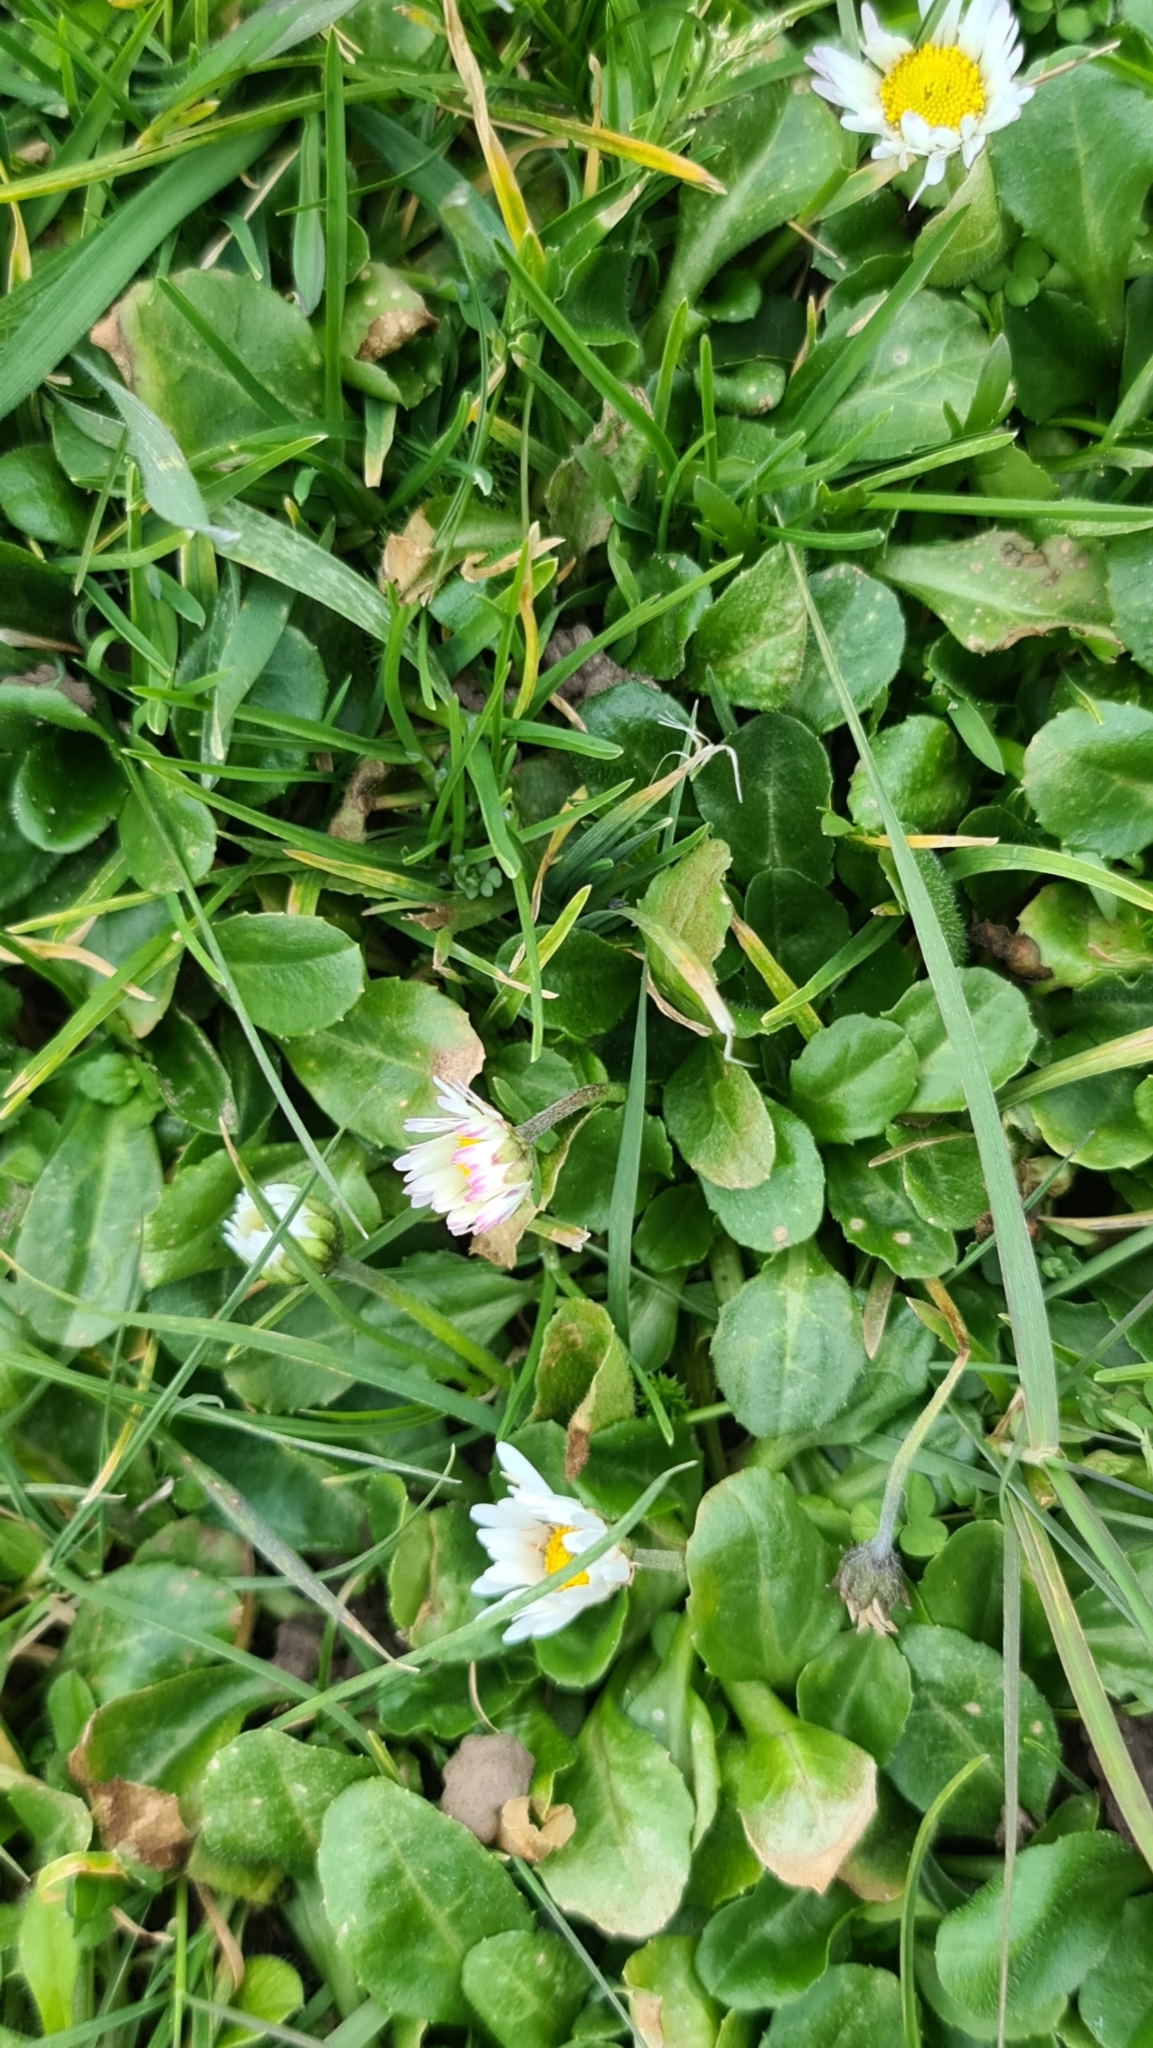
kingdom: Plantae
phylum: Tracheophyta
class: Magnoliopsida
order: Asterales
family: Asteraceae
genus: Bellis
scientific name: Bellis perennis
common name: Lawndaisy
